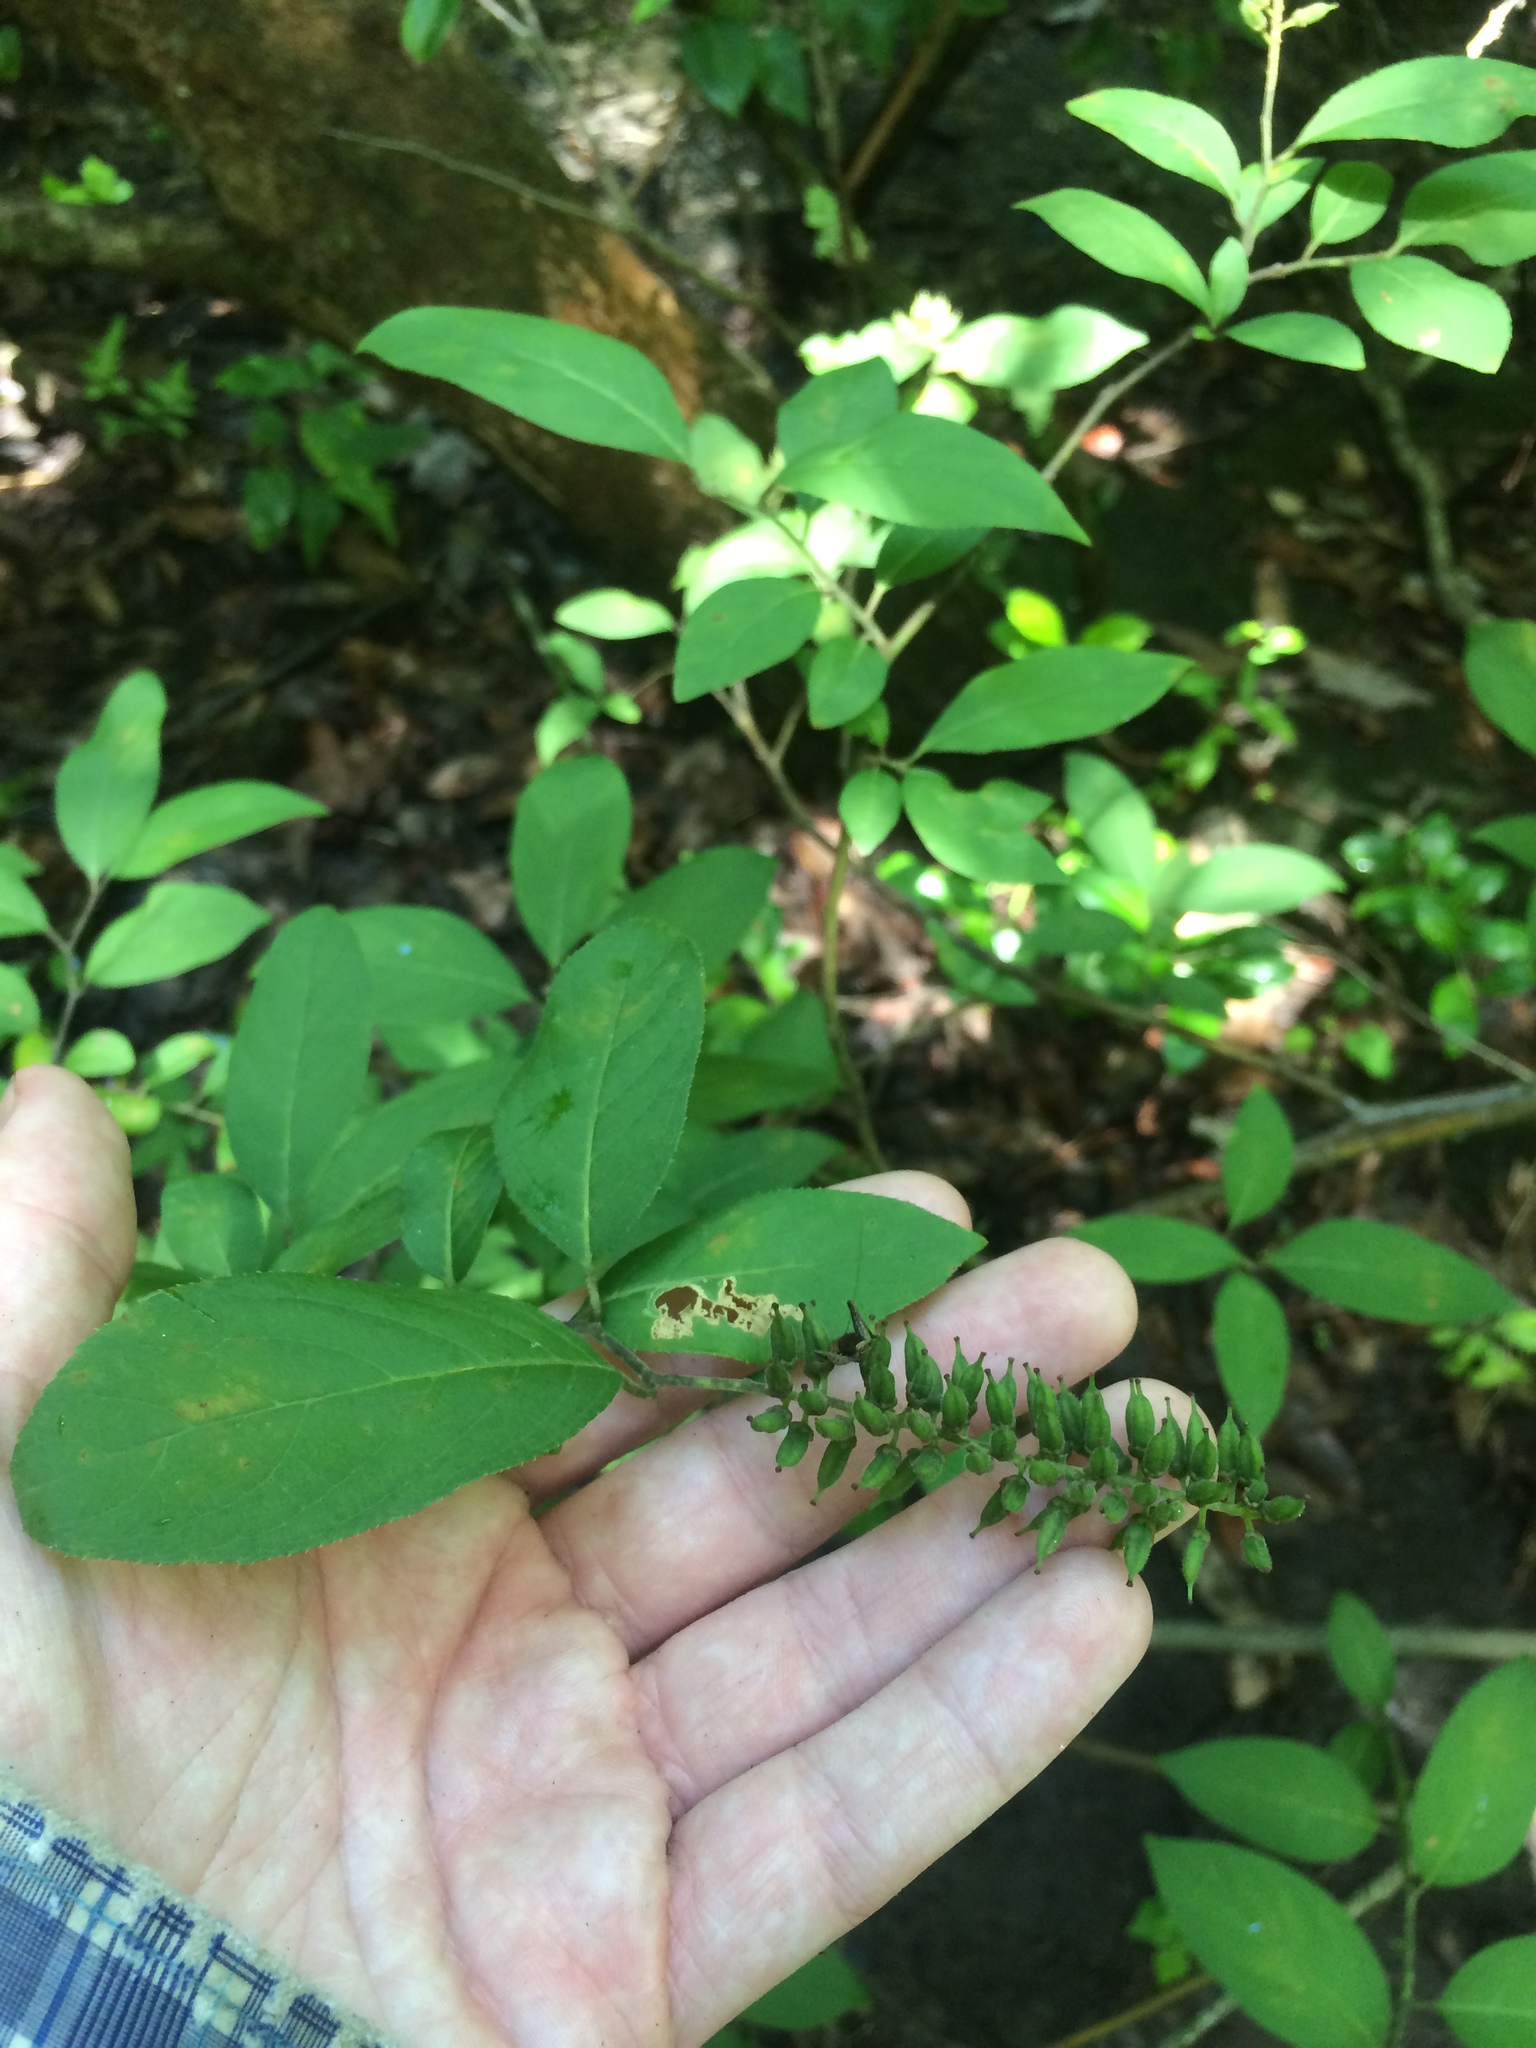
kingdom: Plantae
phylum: Tracheophyta
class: Magnoliopsida
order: Saxifragales
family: Iteaceae
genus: Itea
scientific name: Itea virginica
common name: Sweetspire
